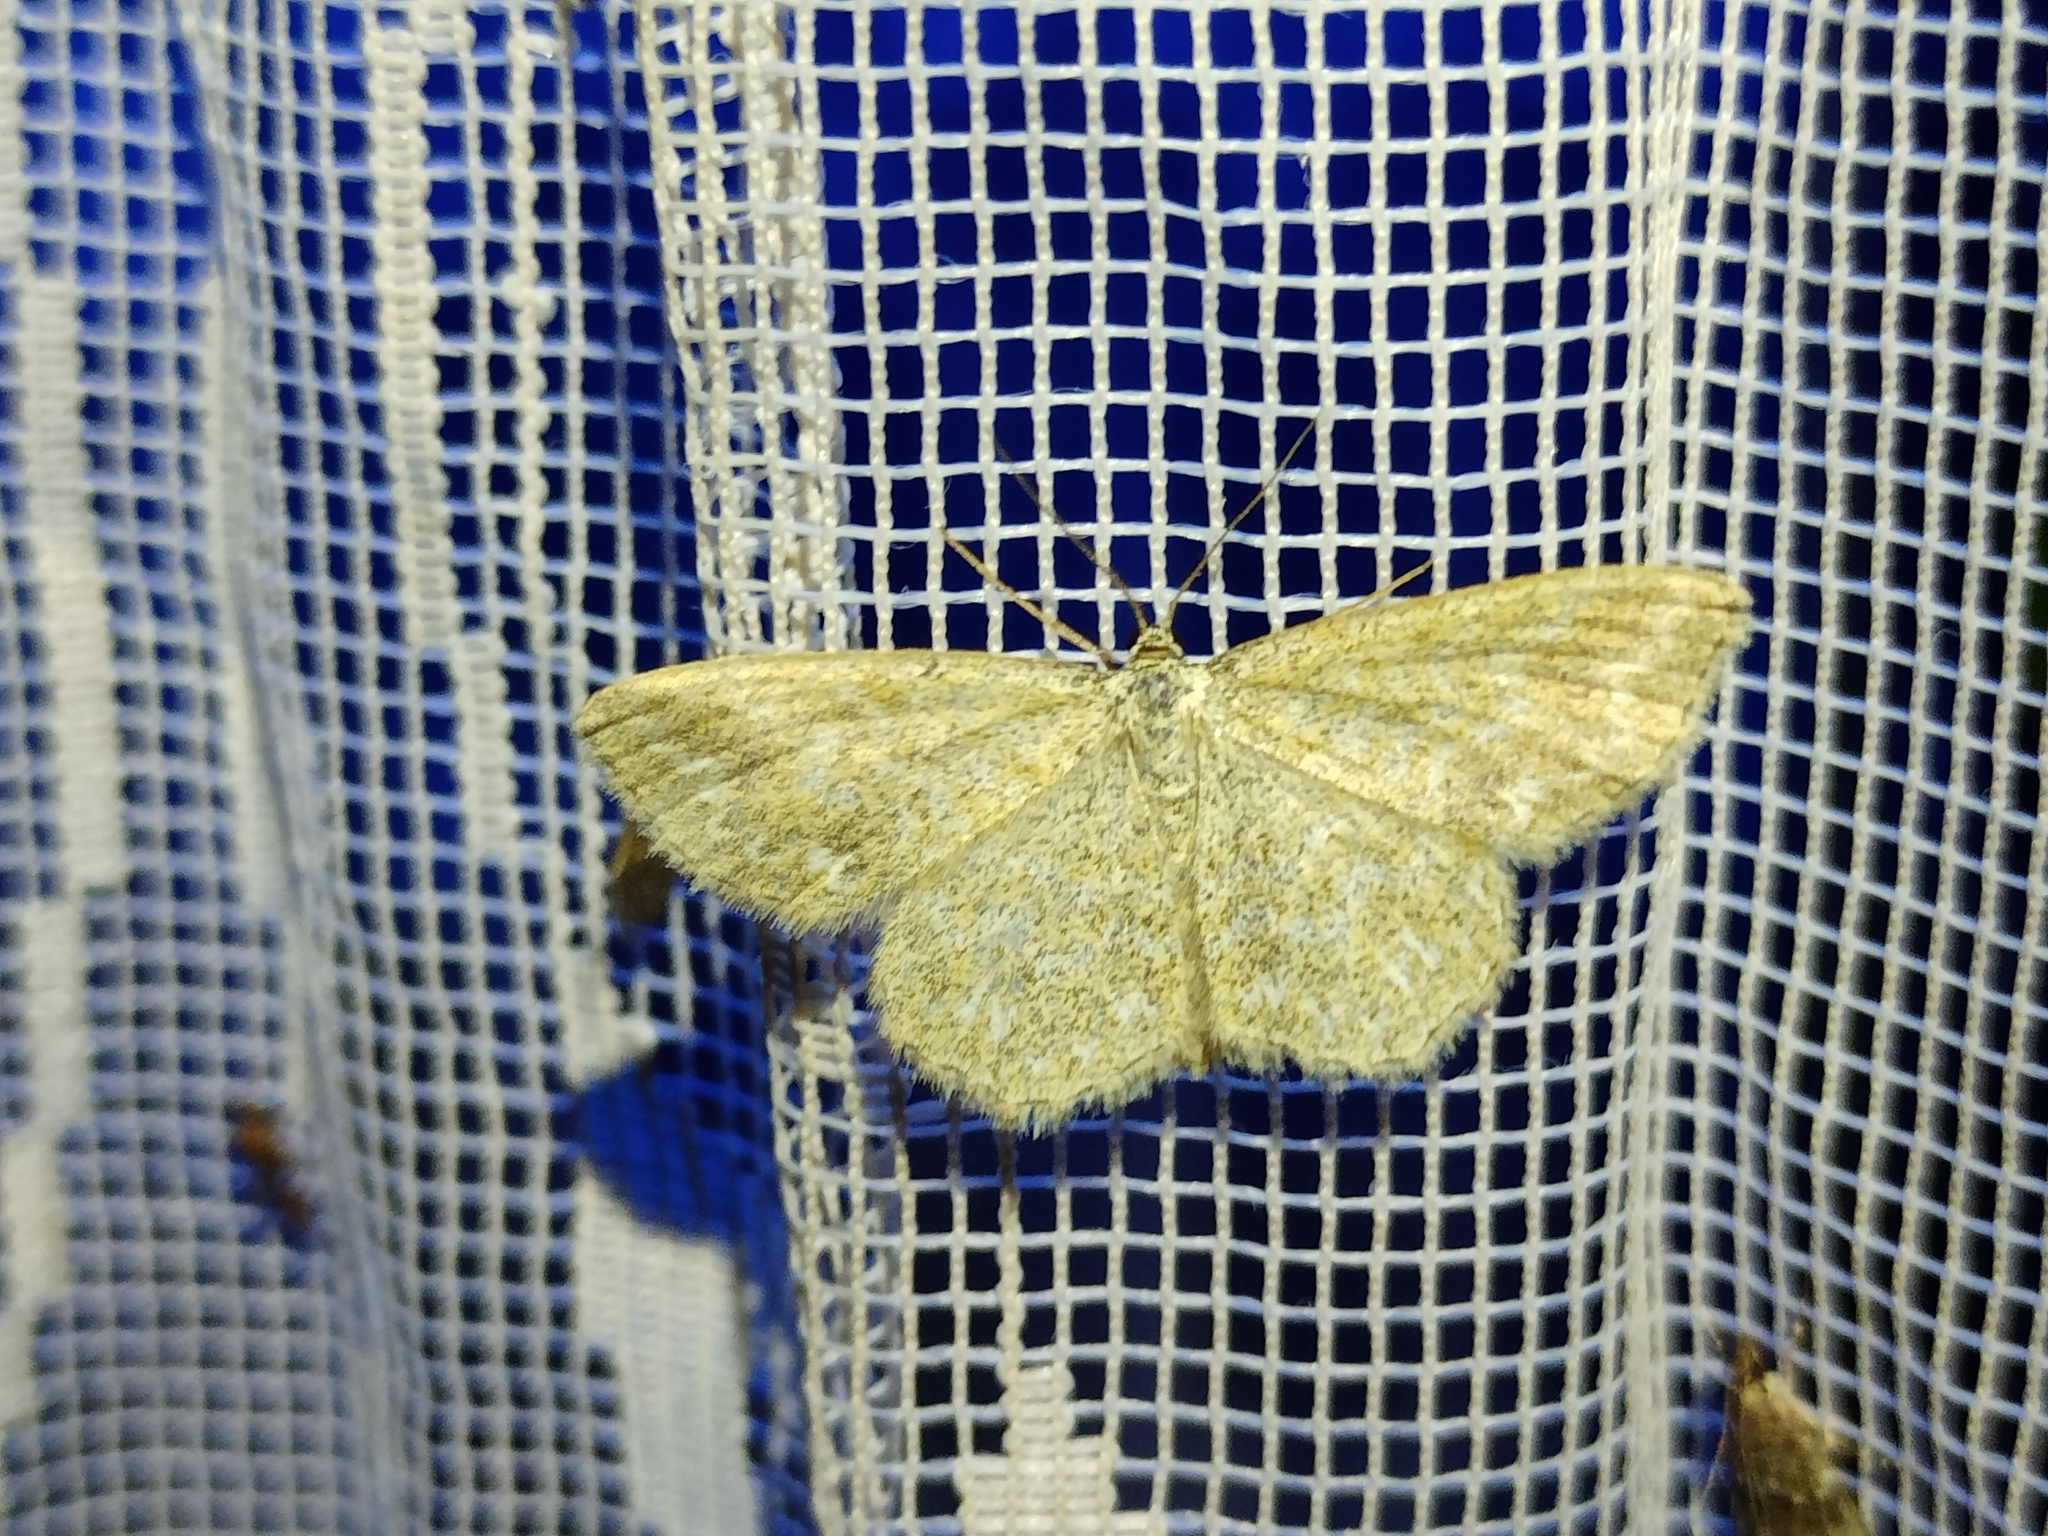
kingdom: Animalia
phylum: Arthropoda
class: Insecta
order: Lepidoptera
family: Geometridae
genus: Scopula
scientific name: Scopula immorata
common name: Lewes wave
